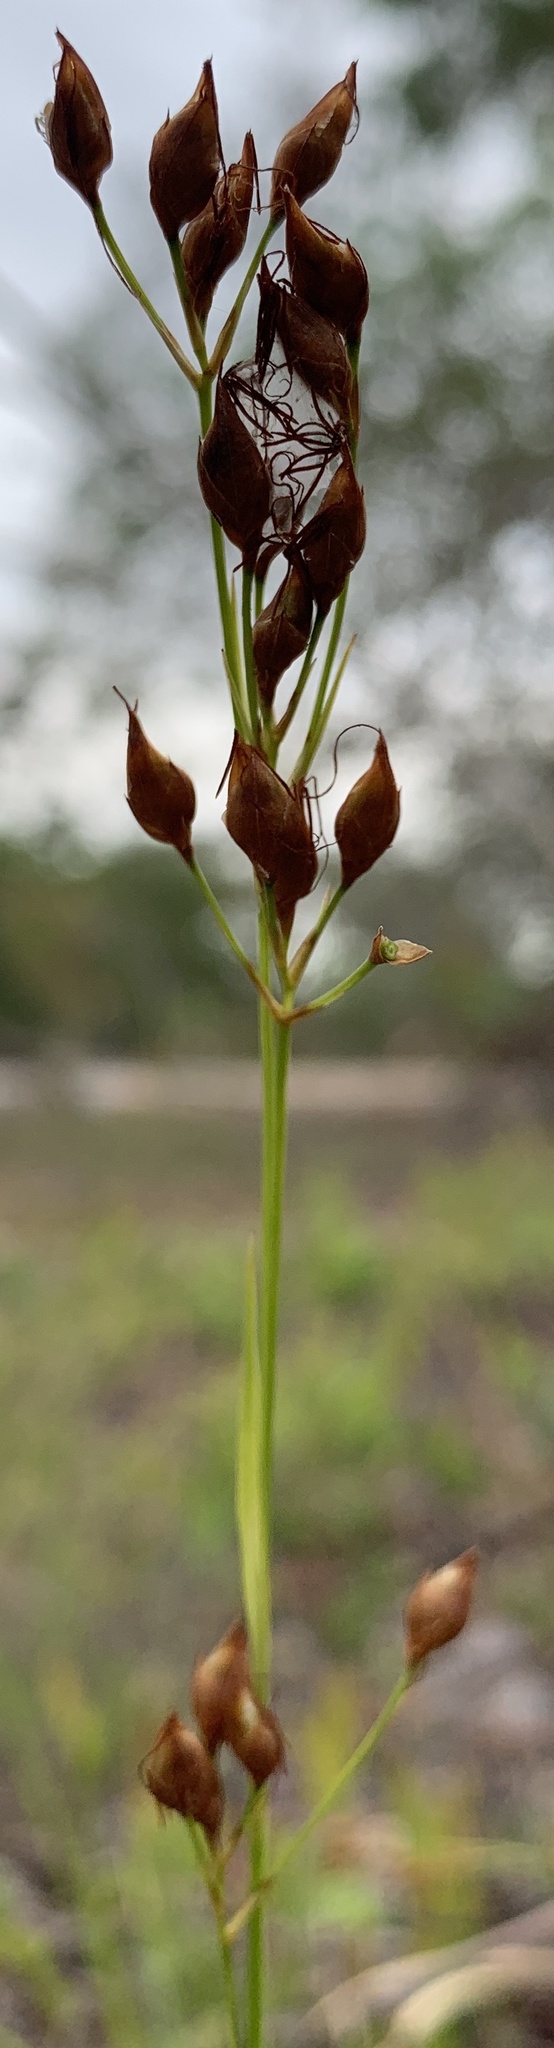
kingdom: Plantae
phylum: Tracheophyta
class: Liliopsida
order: Poales
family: Cyperaceae
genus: Rhynchospora
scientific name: Rhynchospora megalocarpa
